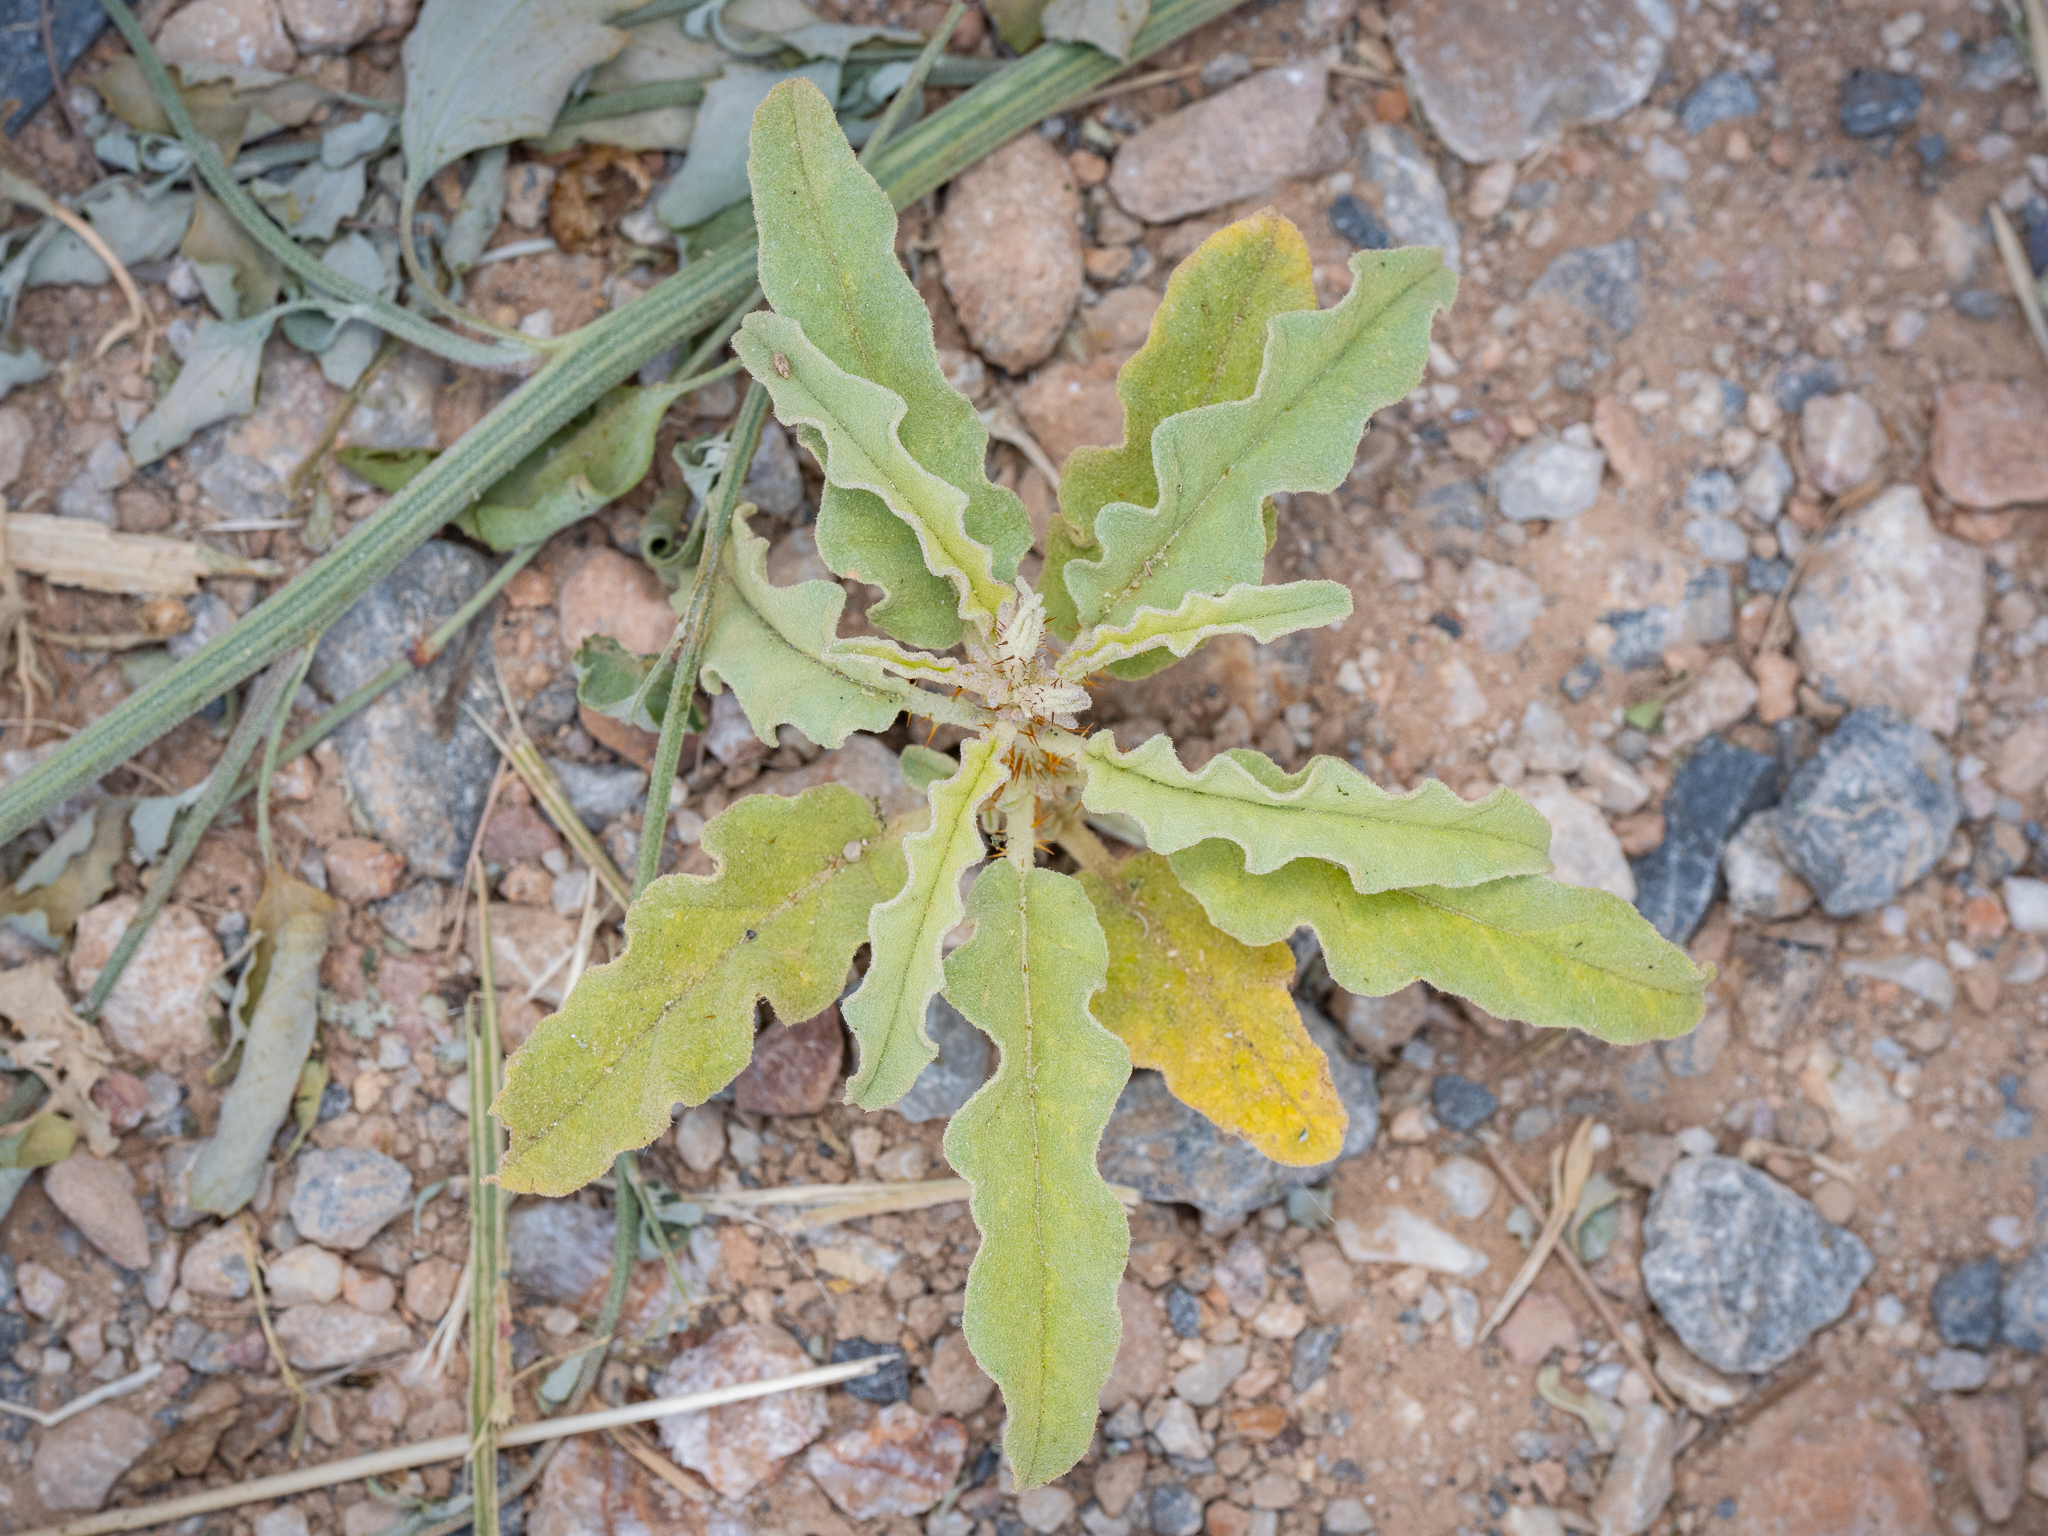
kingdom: Plantae
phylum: Tracheophyta
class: Magnoliopsida
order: Solanales
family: Solanaceae
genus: Solanum
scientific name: Solanum elaeagnifolium
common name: Silverleaf nightshade
